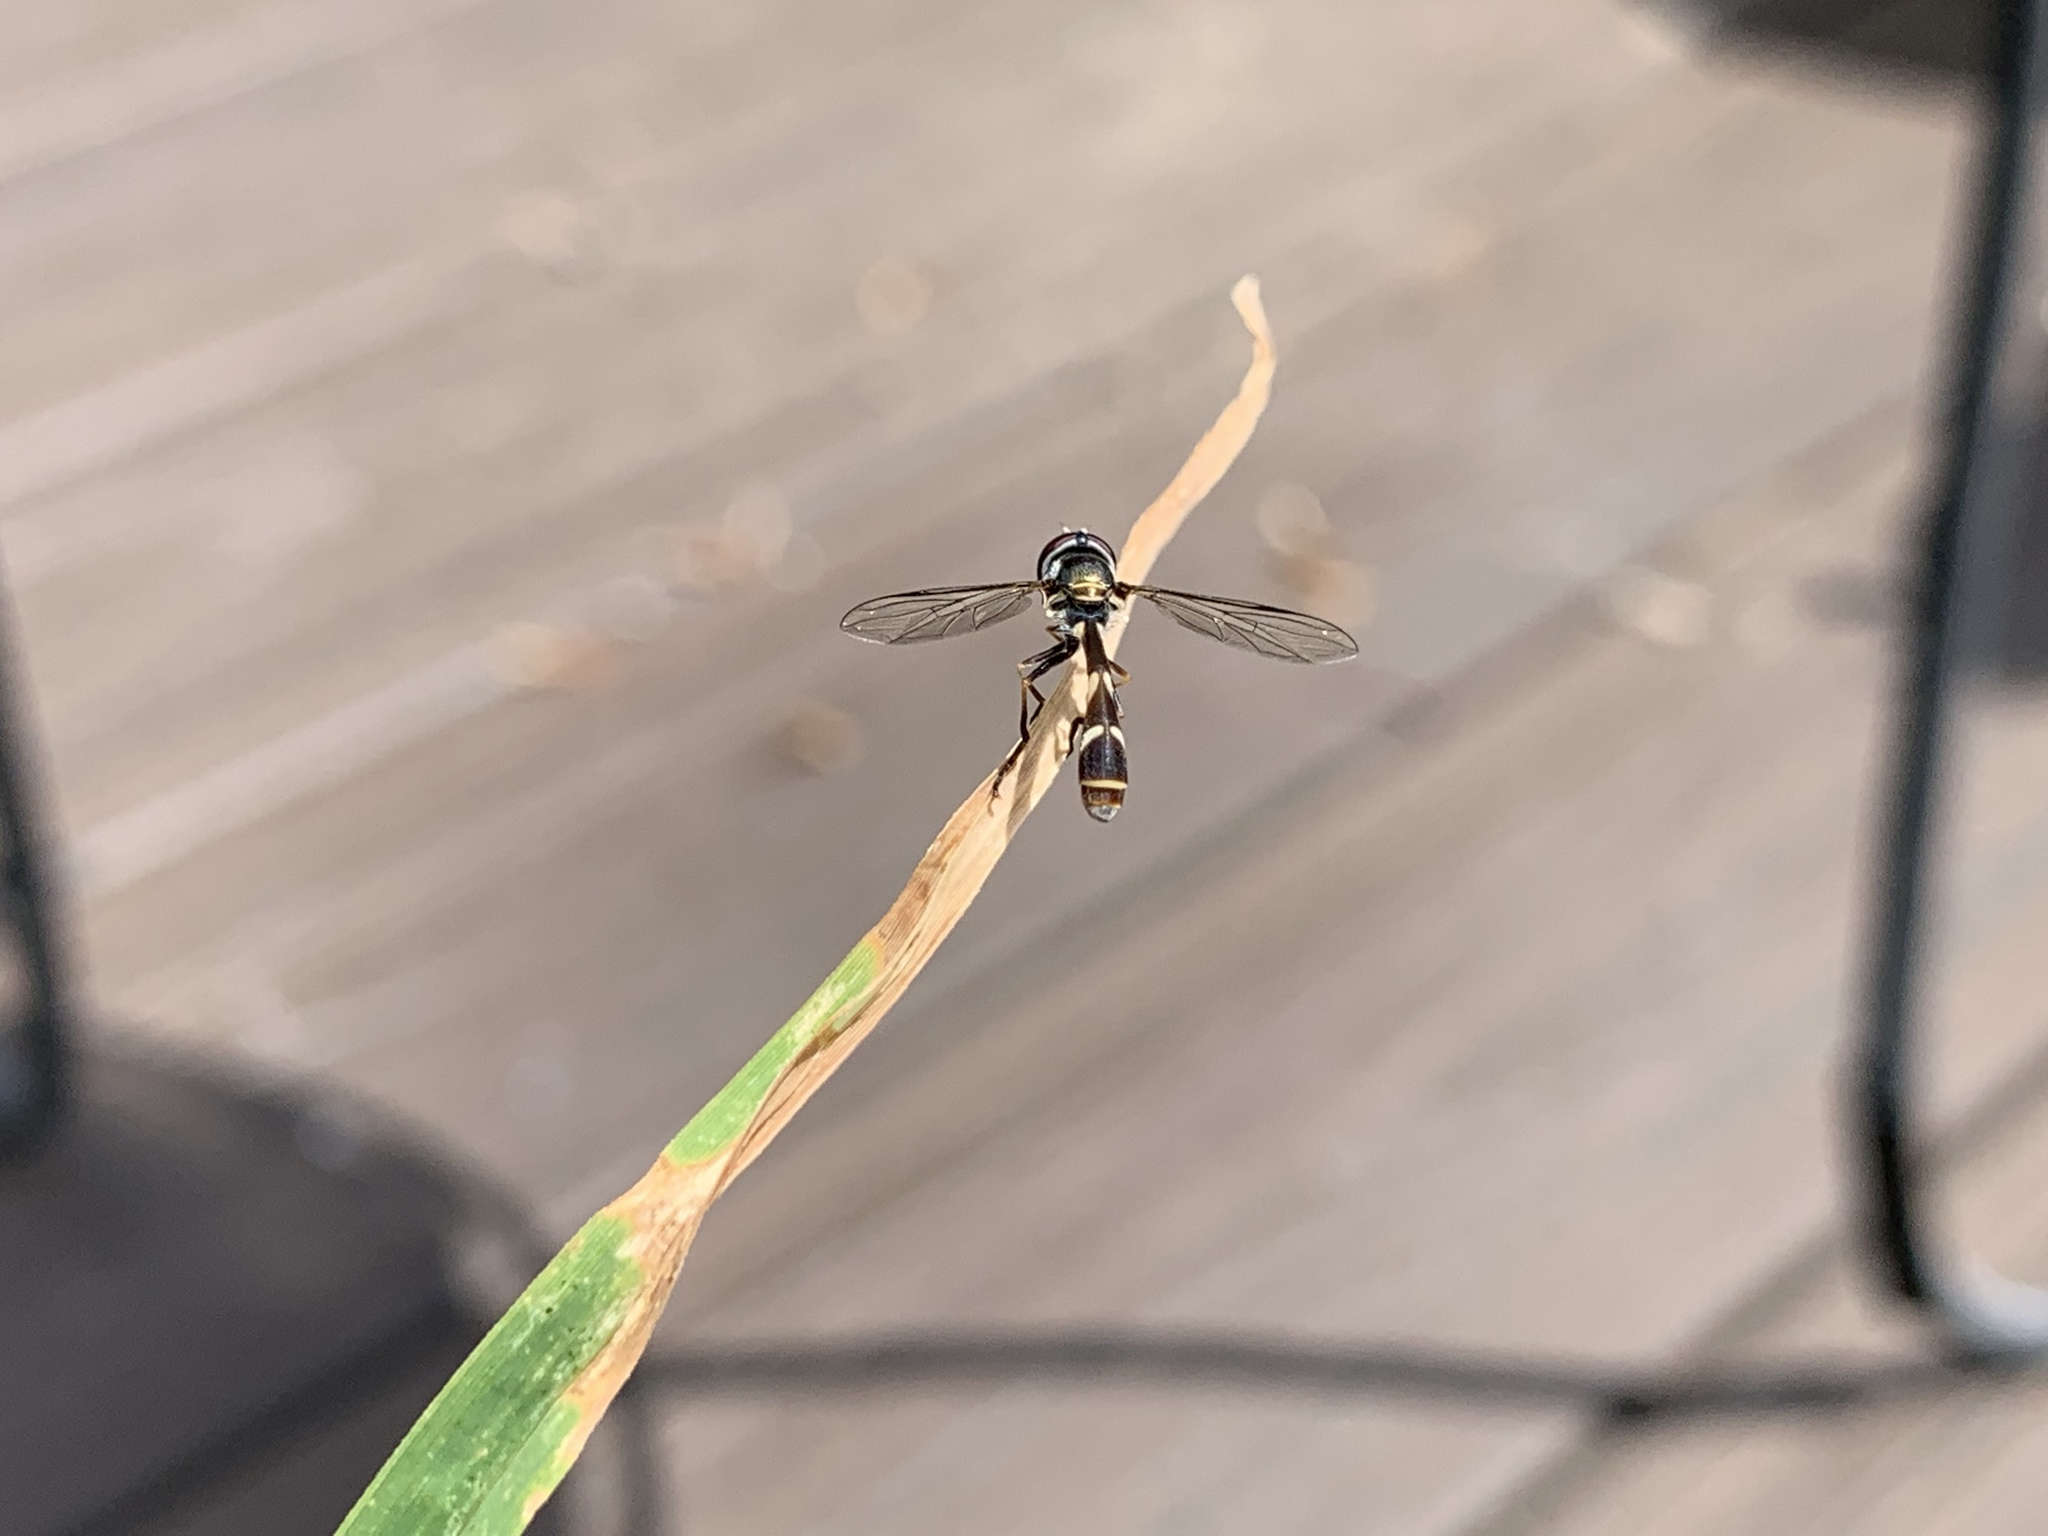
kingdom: Animalia
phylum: Arthropoda
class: Insecta
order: Diptera
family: Syrphidae
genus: Dioprosopa
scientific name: Dioprosopa clavatus
